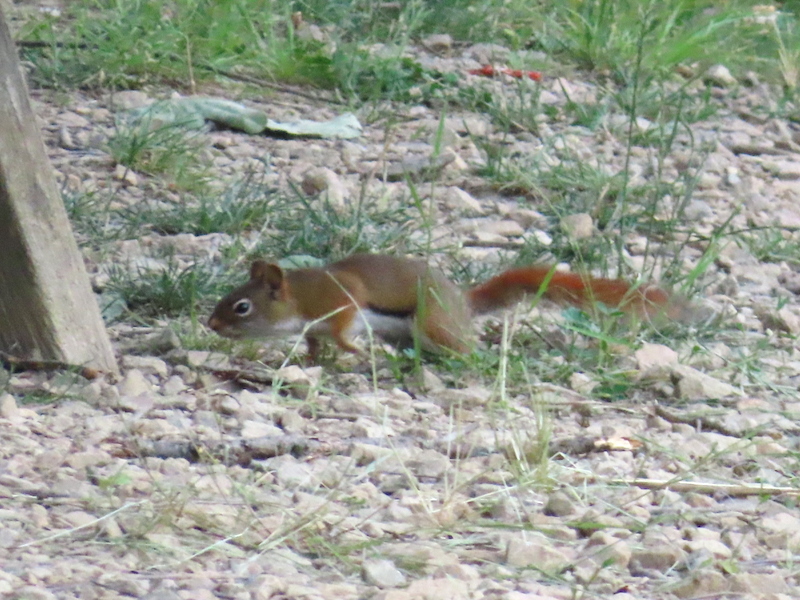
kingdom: Animalia
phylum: Chordata
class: Mammalia
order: Rodentia
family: Sciuridae
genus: Tamiasciurus
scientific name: Tamiasciurus hudsonicus
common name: Red squirrel
